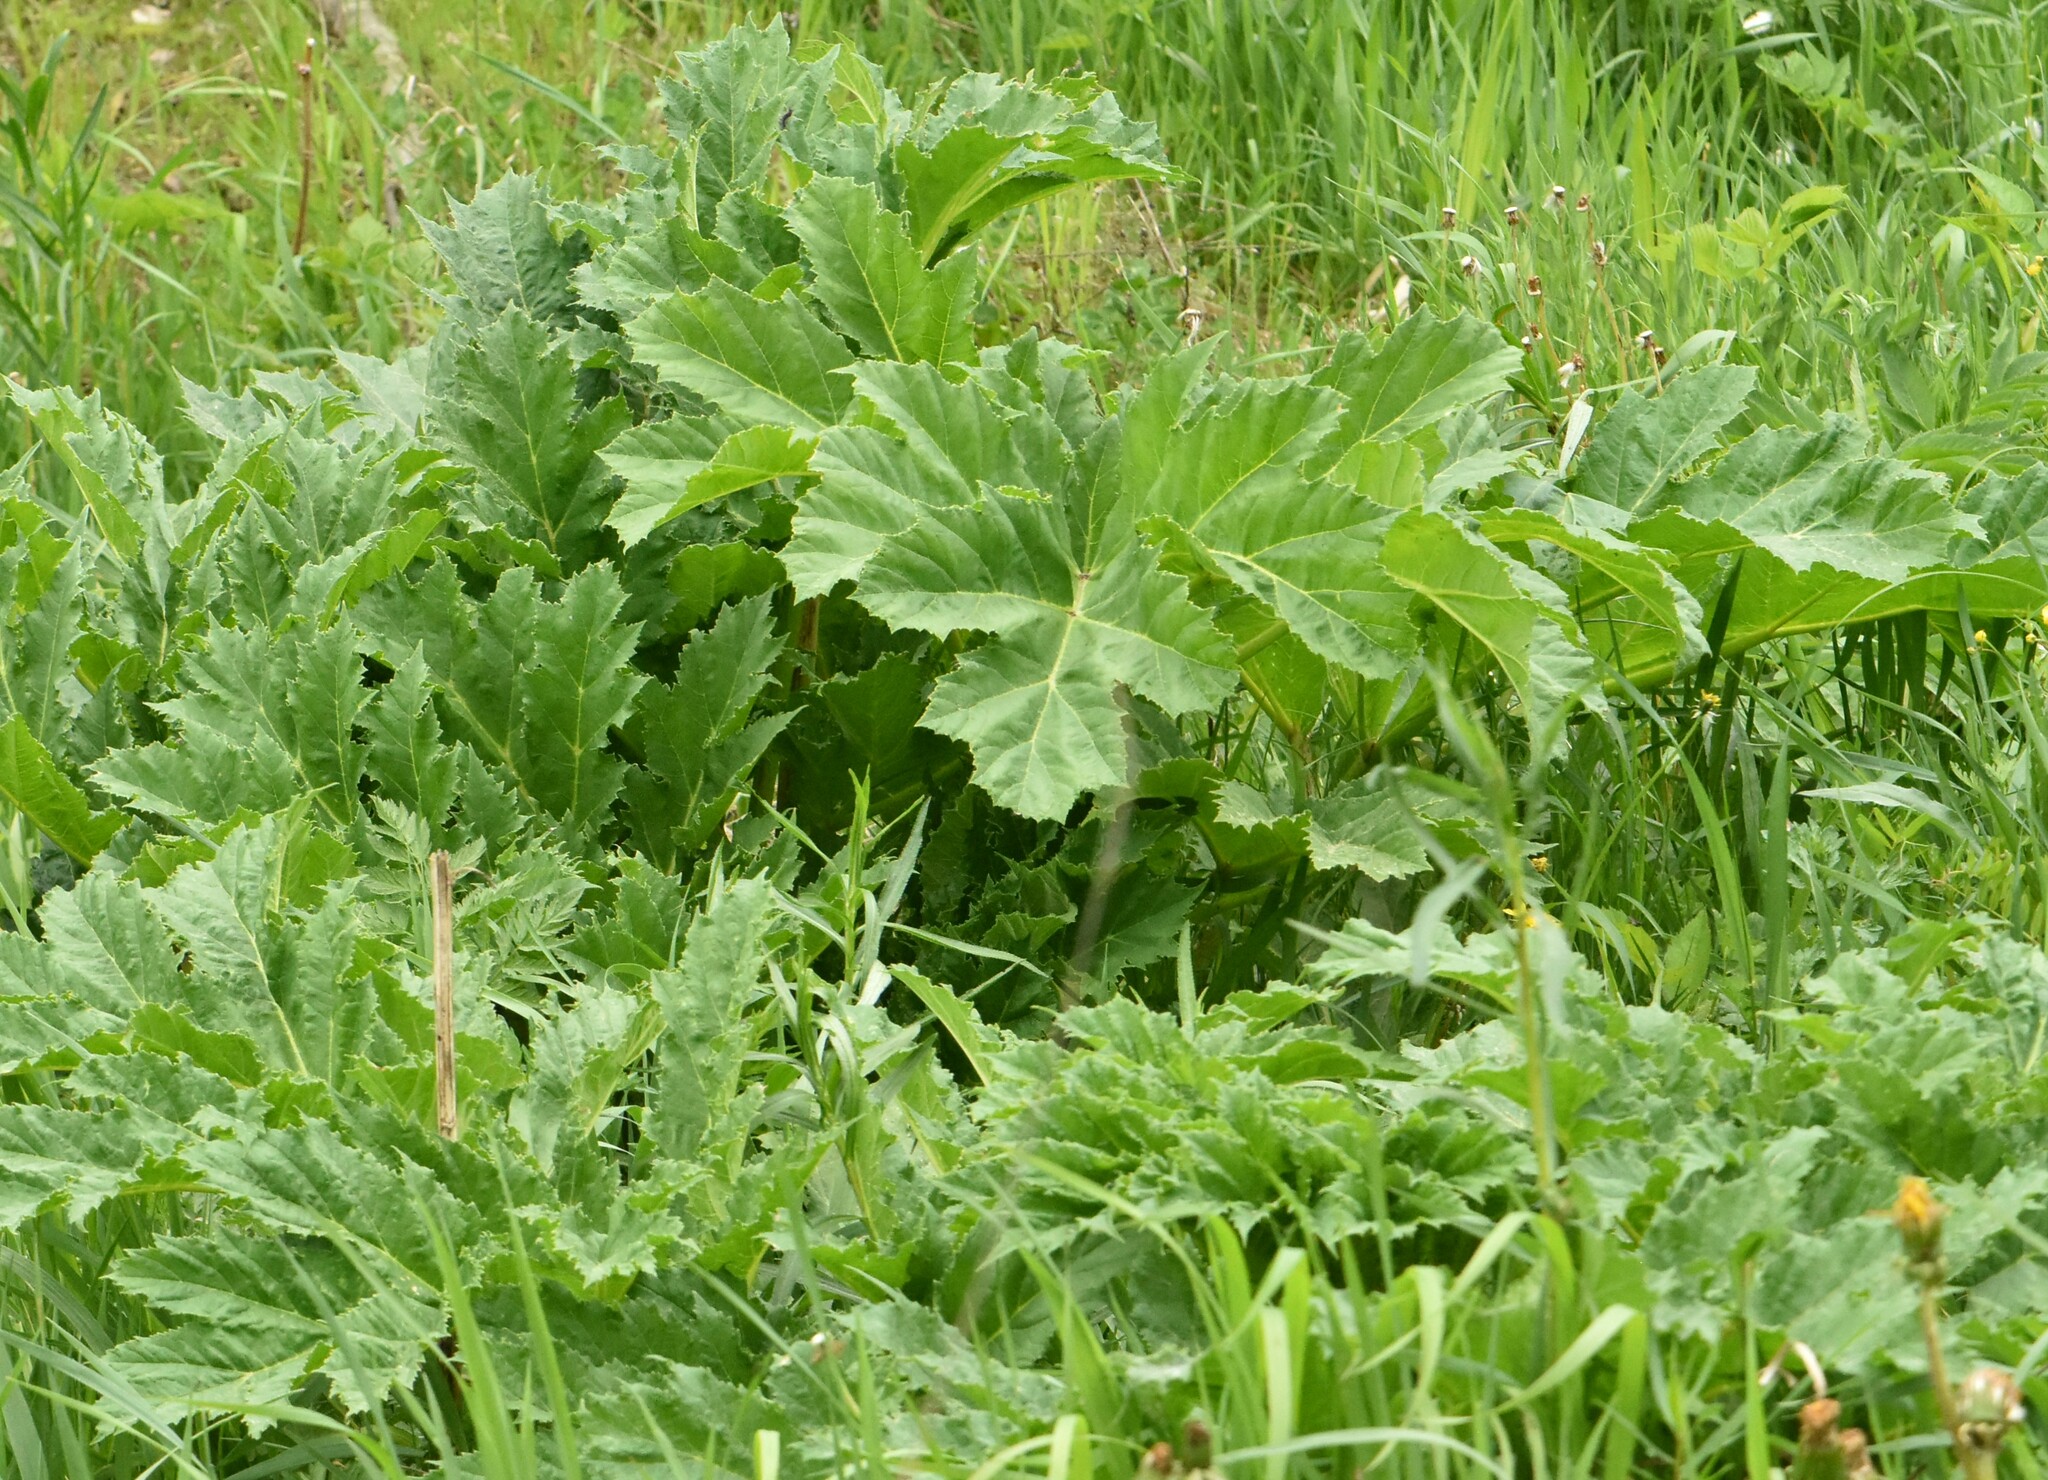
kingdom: Plantae
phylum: Tracheophyta
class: Magnoliopsida
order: Apiales
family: Apiaceae
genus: Heracleum
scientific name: Heracleum sosnowskyi
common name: Sosnowsky's hogweed
